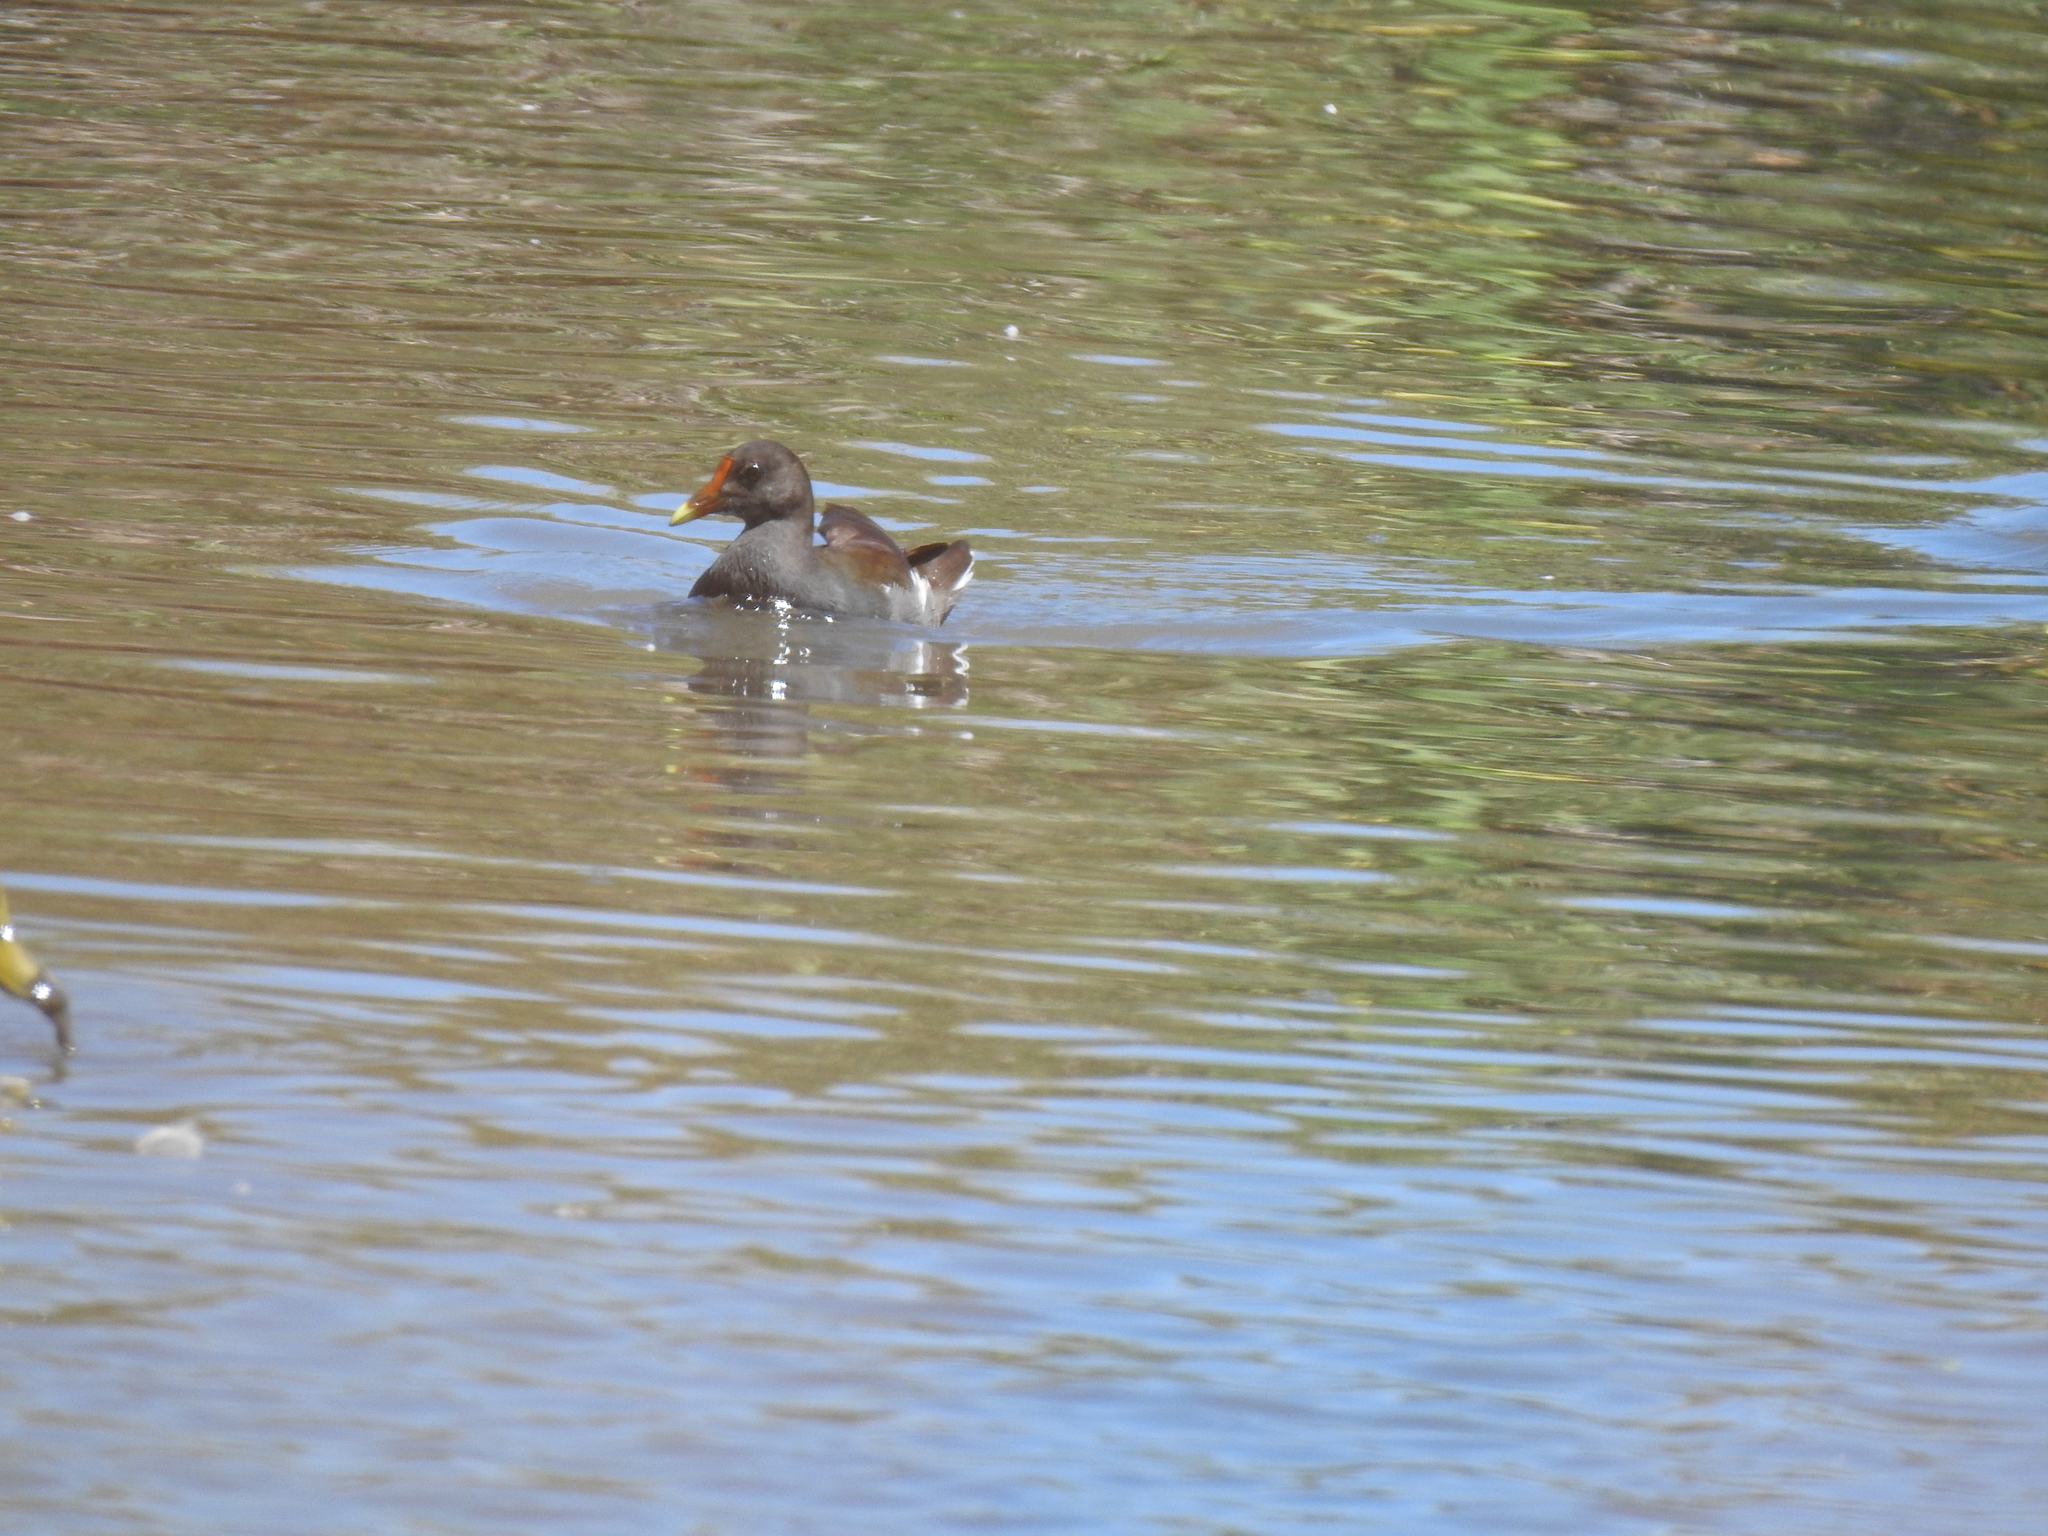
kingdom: Animalia
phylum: Chordata
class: Aves
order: Gruiformes
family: Rallidae
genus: Gallinula
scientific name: Gallinula chloropus
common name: Common moorhen
